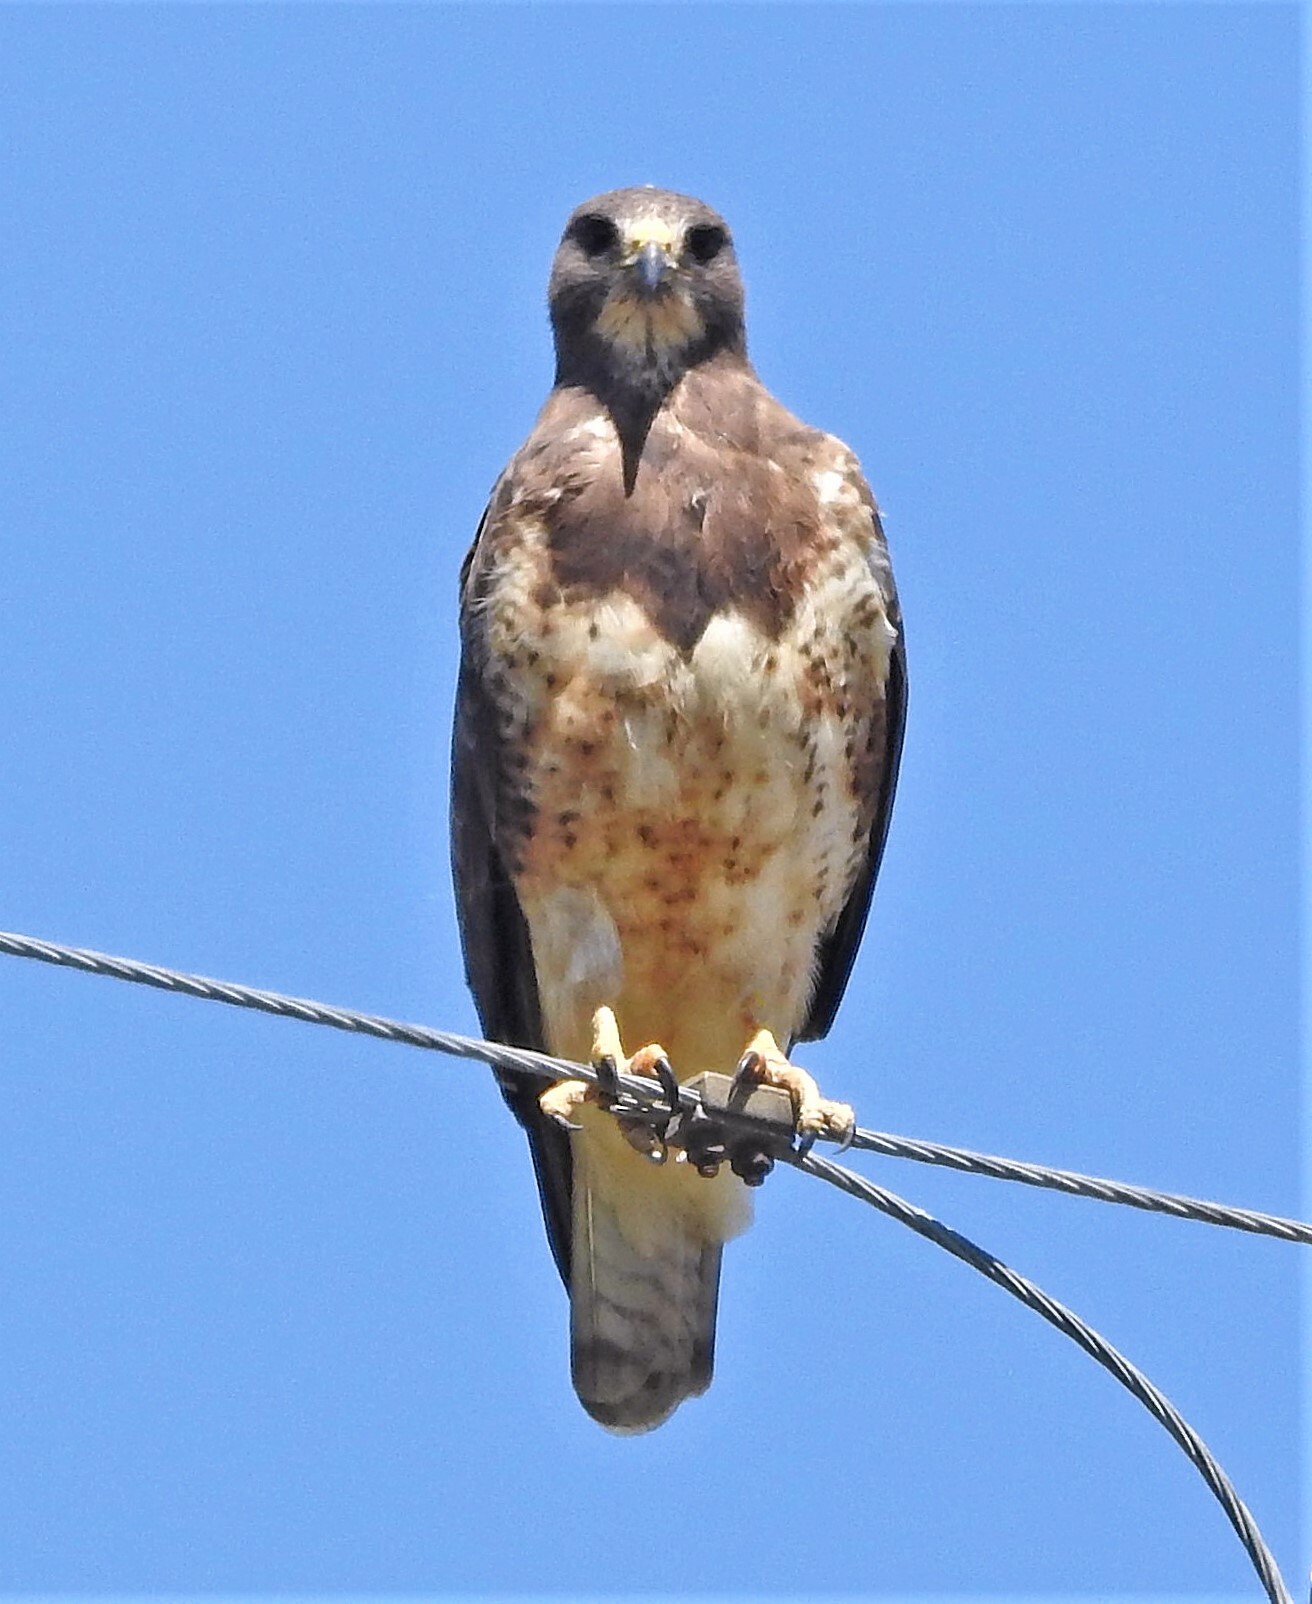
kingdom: Animalia
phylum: Chordata
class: Aves
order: Accipitriformes
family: Accipitridae
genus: Buteo
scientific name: Buteo swainsoni
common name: Swainson's hawk
